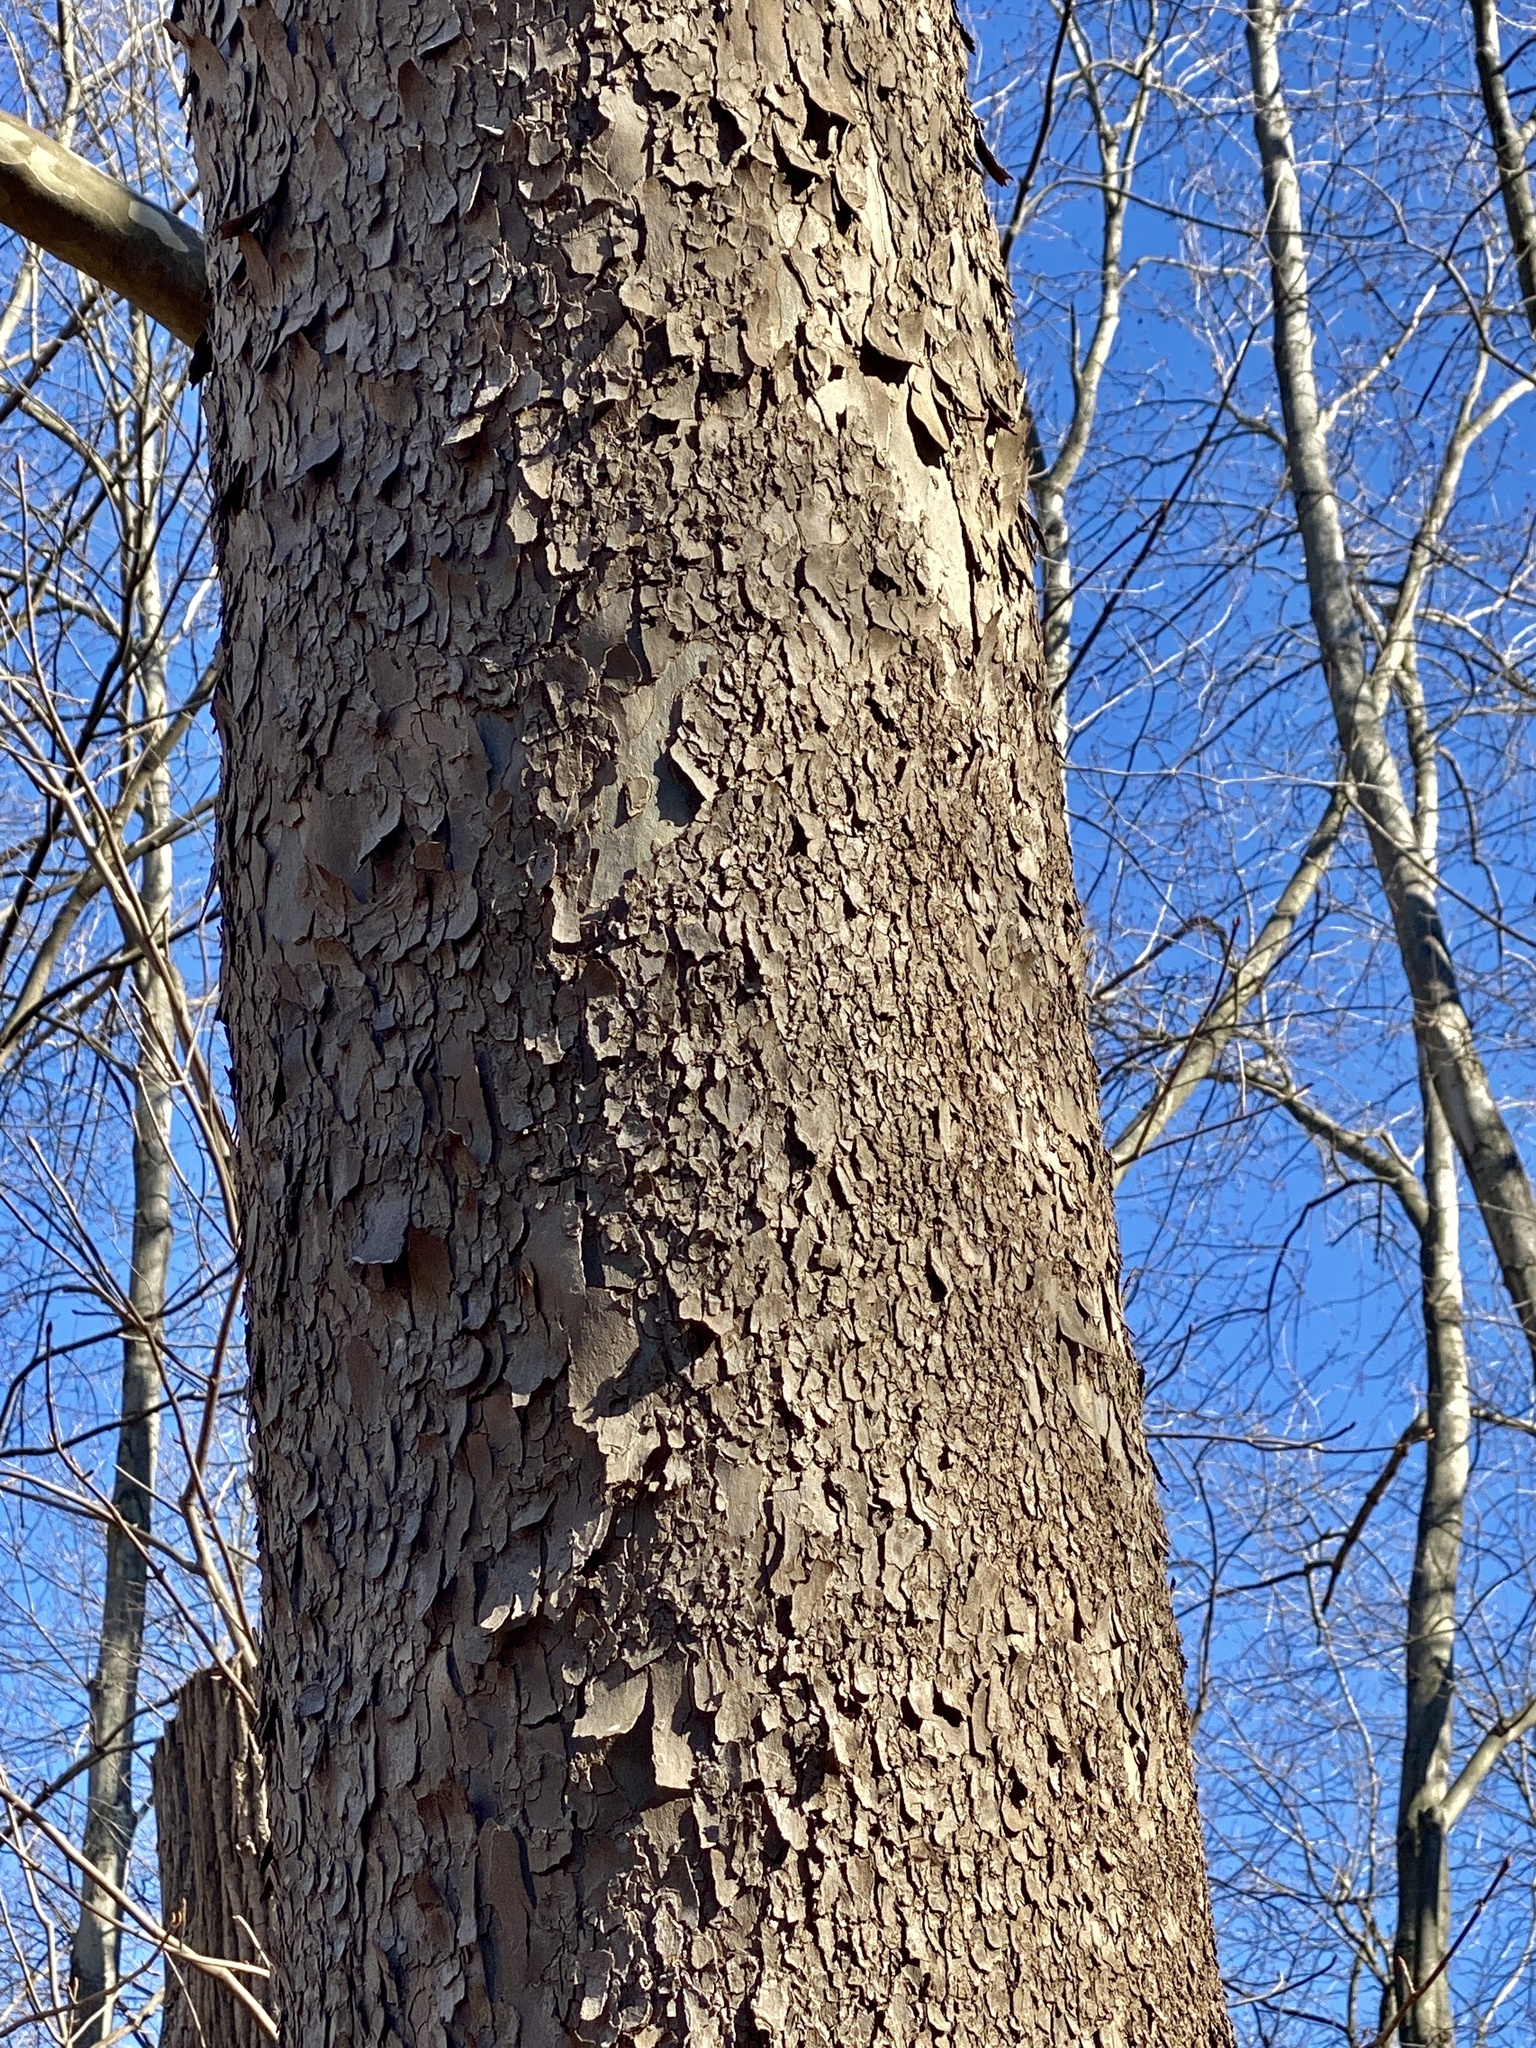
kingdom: Plantae
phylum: Tracheophyta
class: Magnoliopsida
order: Proteales
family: Platanaceae
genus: Platanus
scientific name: Platanus occidentalis
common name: American sycamore
